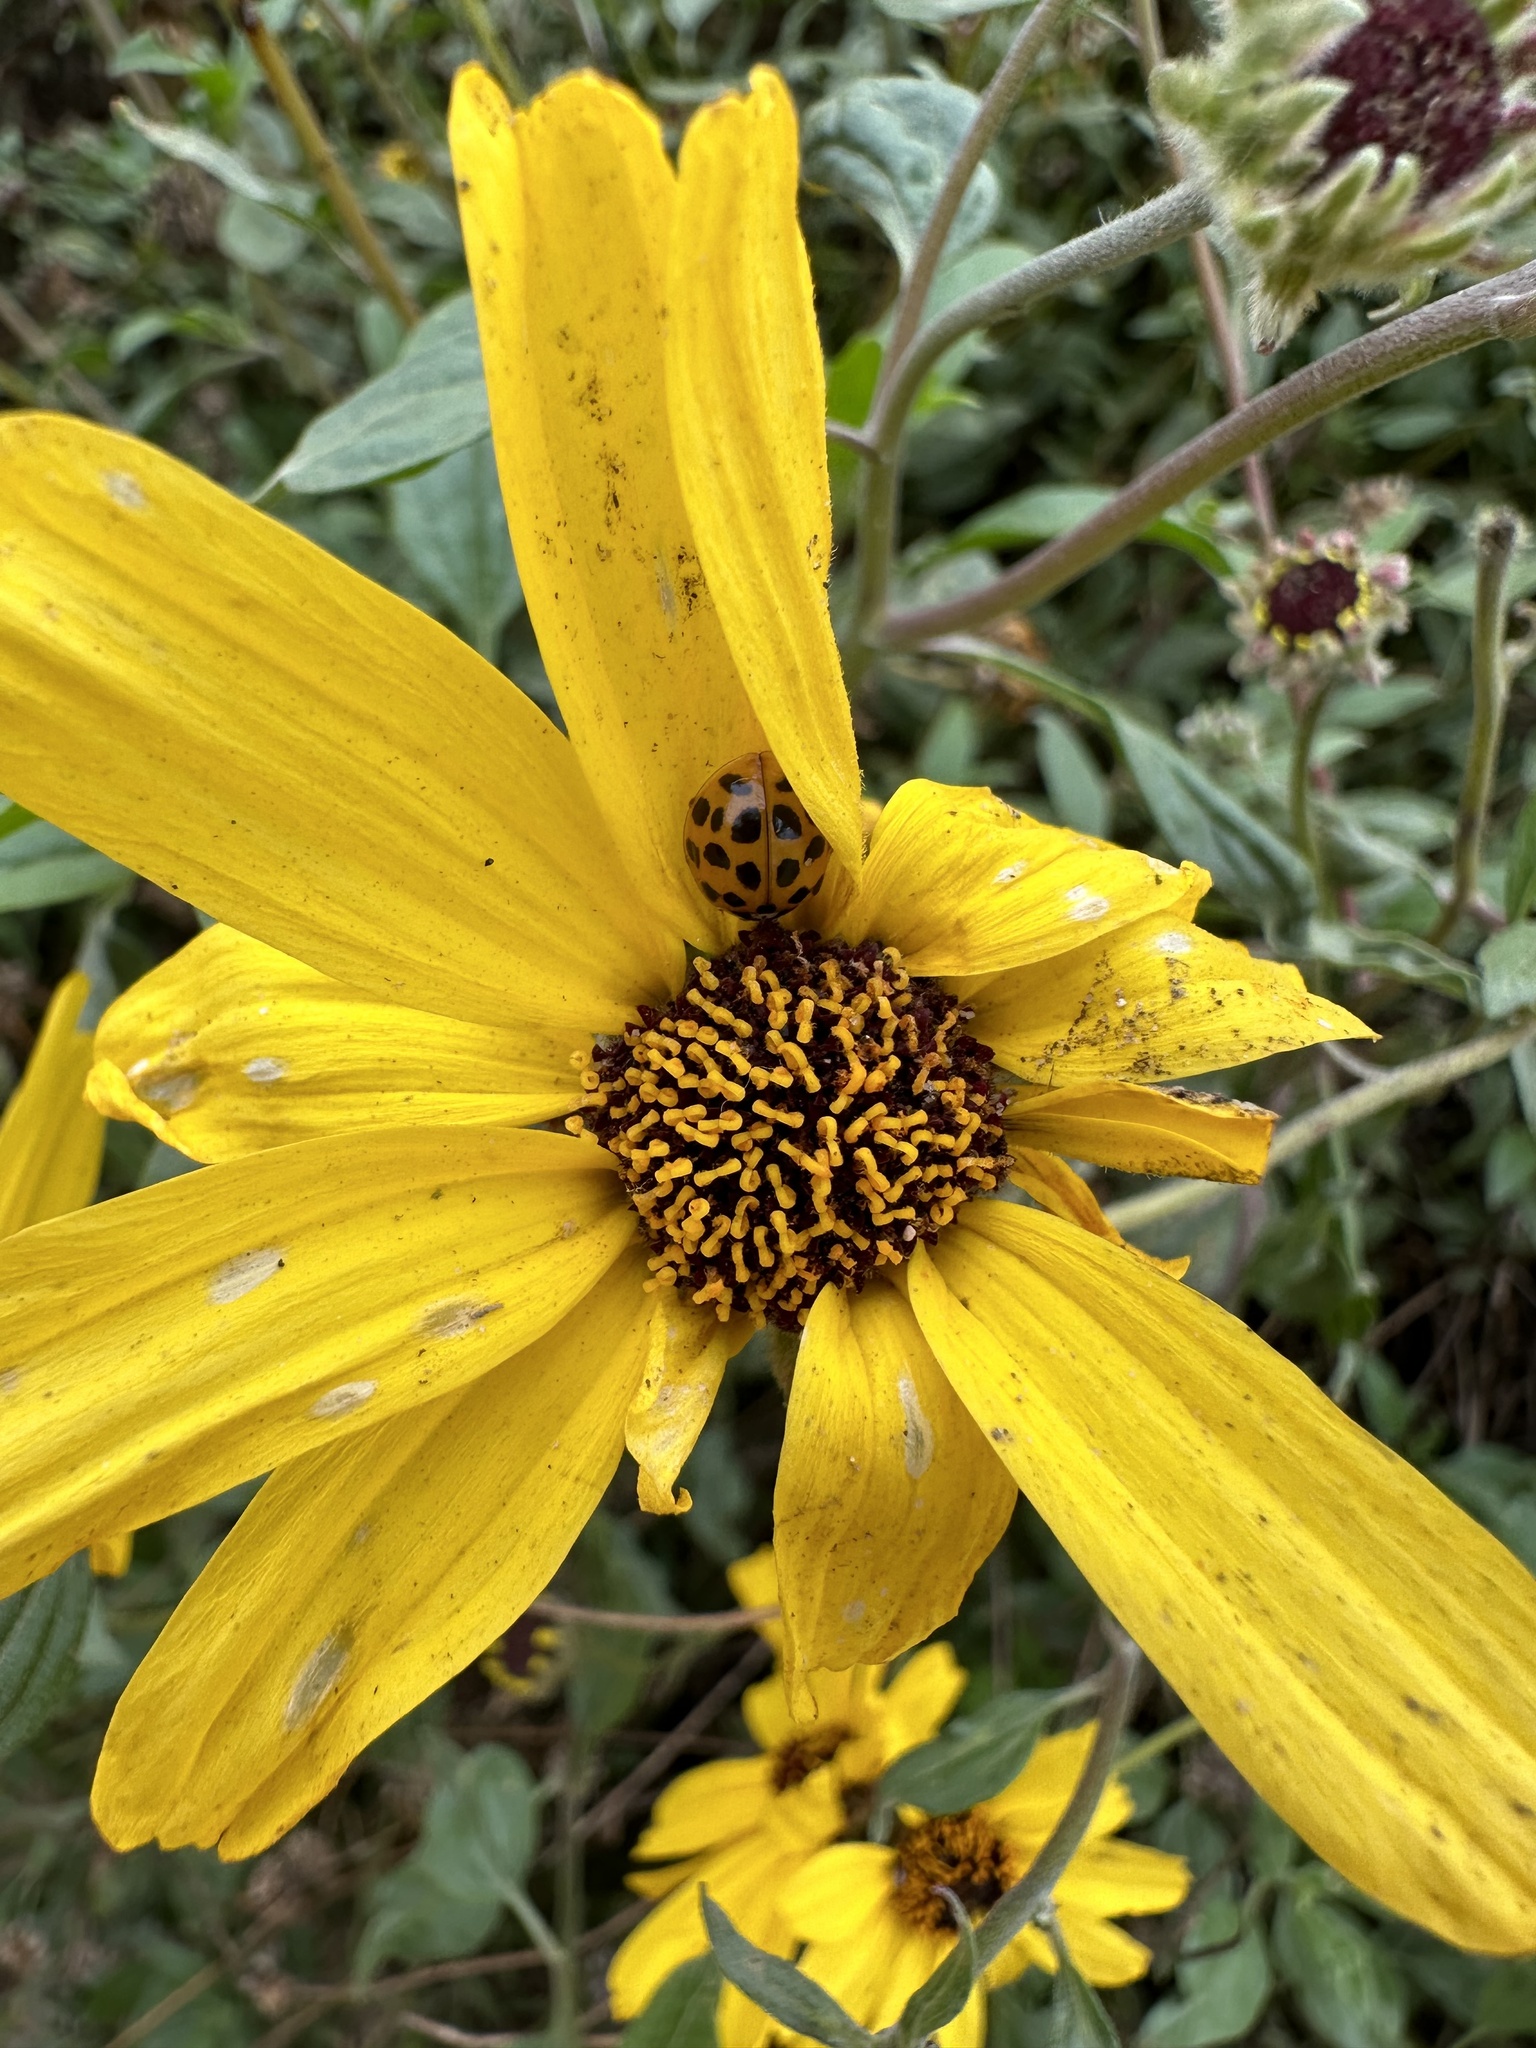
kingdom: Animalia
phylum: Arthropoda
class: Insecta
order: Coleoptera
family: Coccinellidae
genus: Harmonia
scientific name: Harmonia axyridis
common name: Harlequin ladybird
